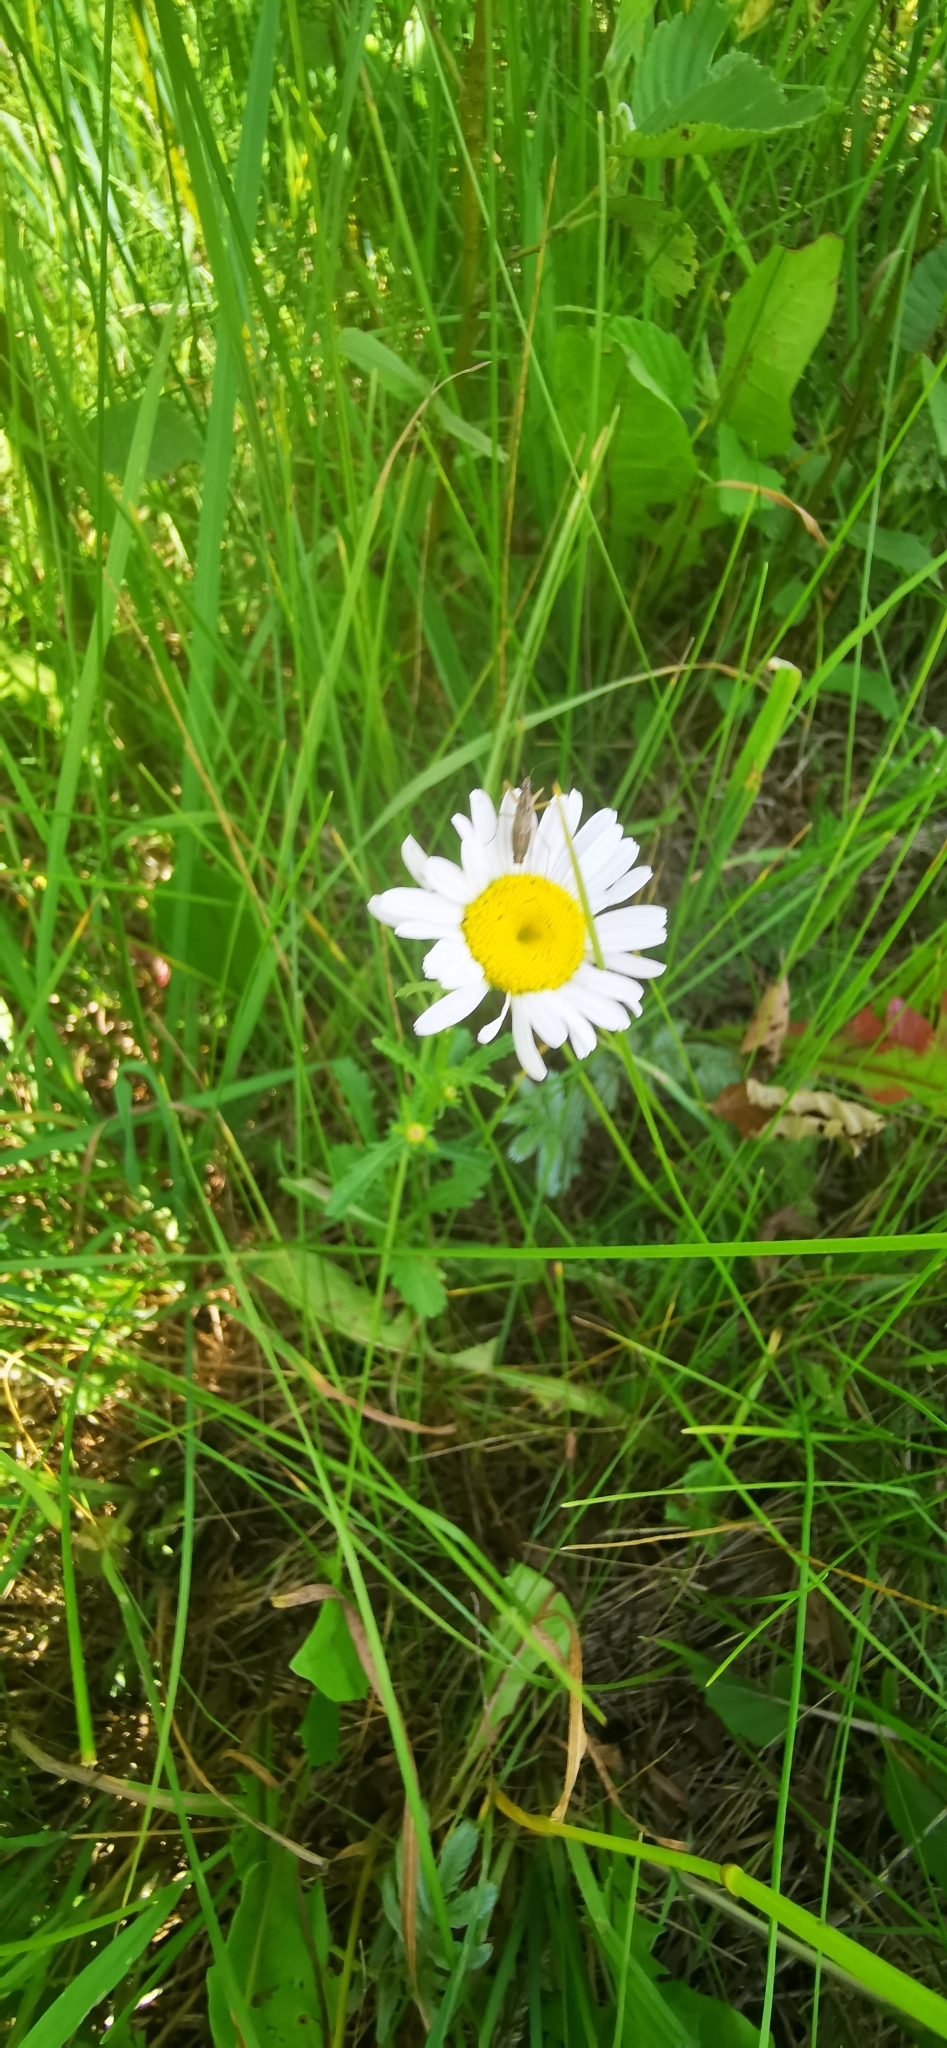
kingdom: Plantae
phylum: Tracheophyta
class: Magnoliopsida
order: Asterales
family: Asteraceae
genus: Leucanthemum
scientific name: Leucanthemum vulgare
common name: Oxeye daisy
